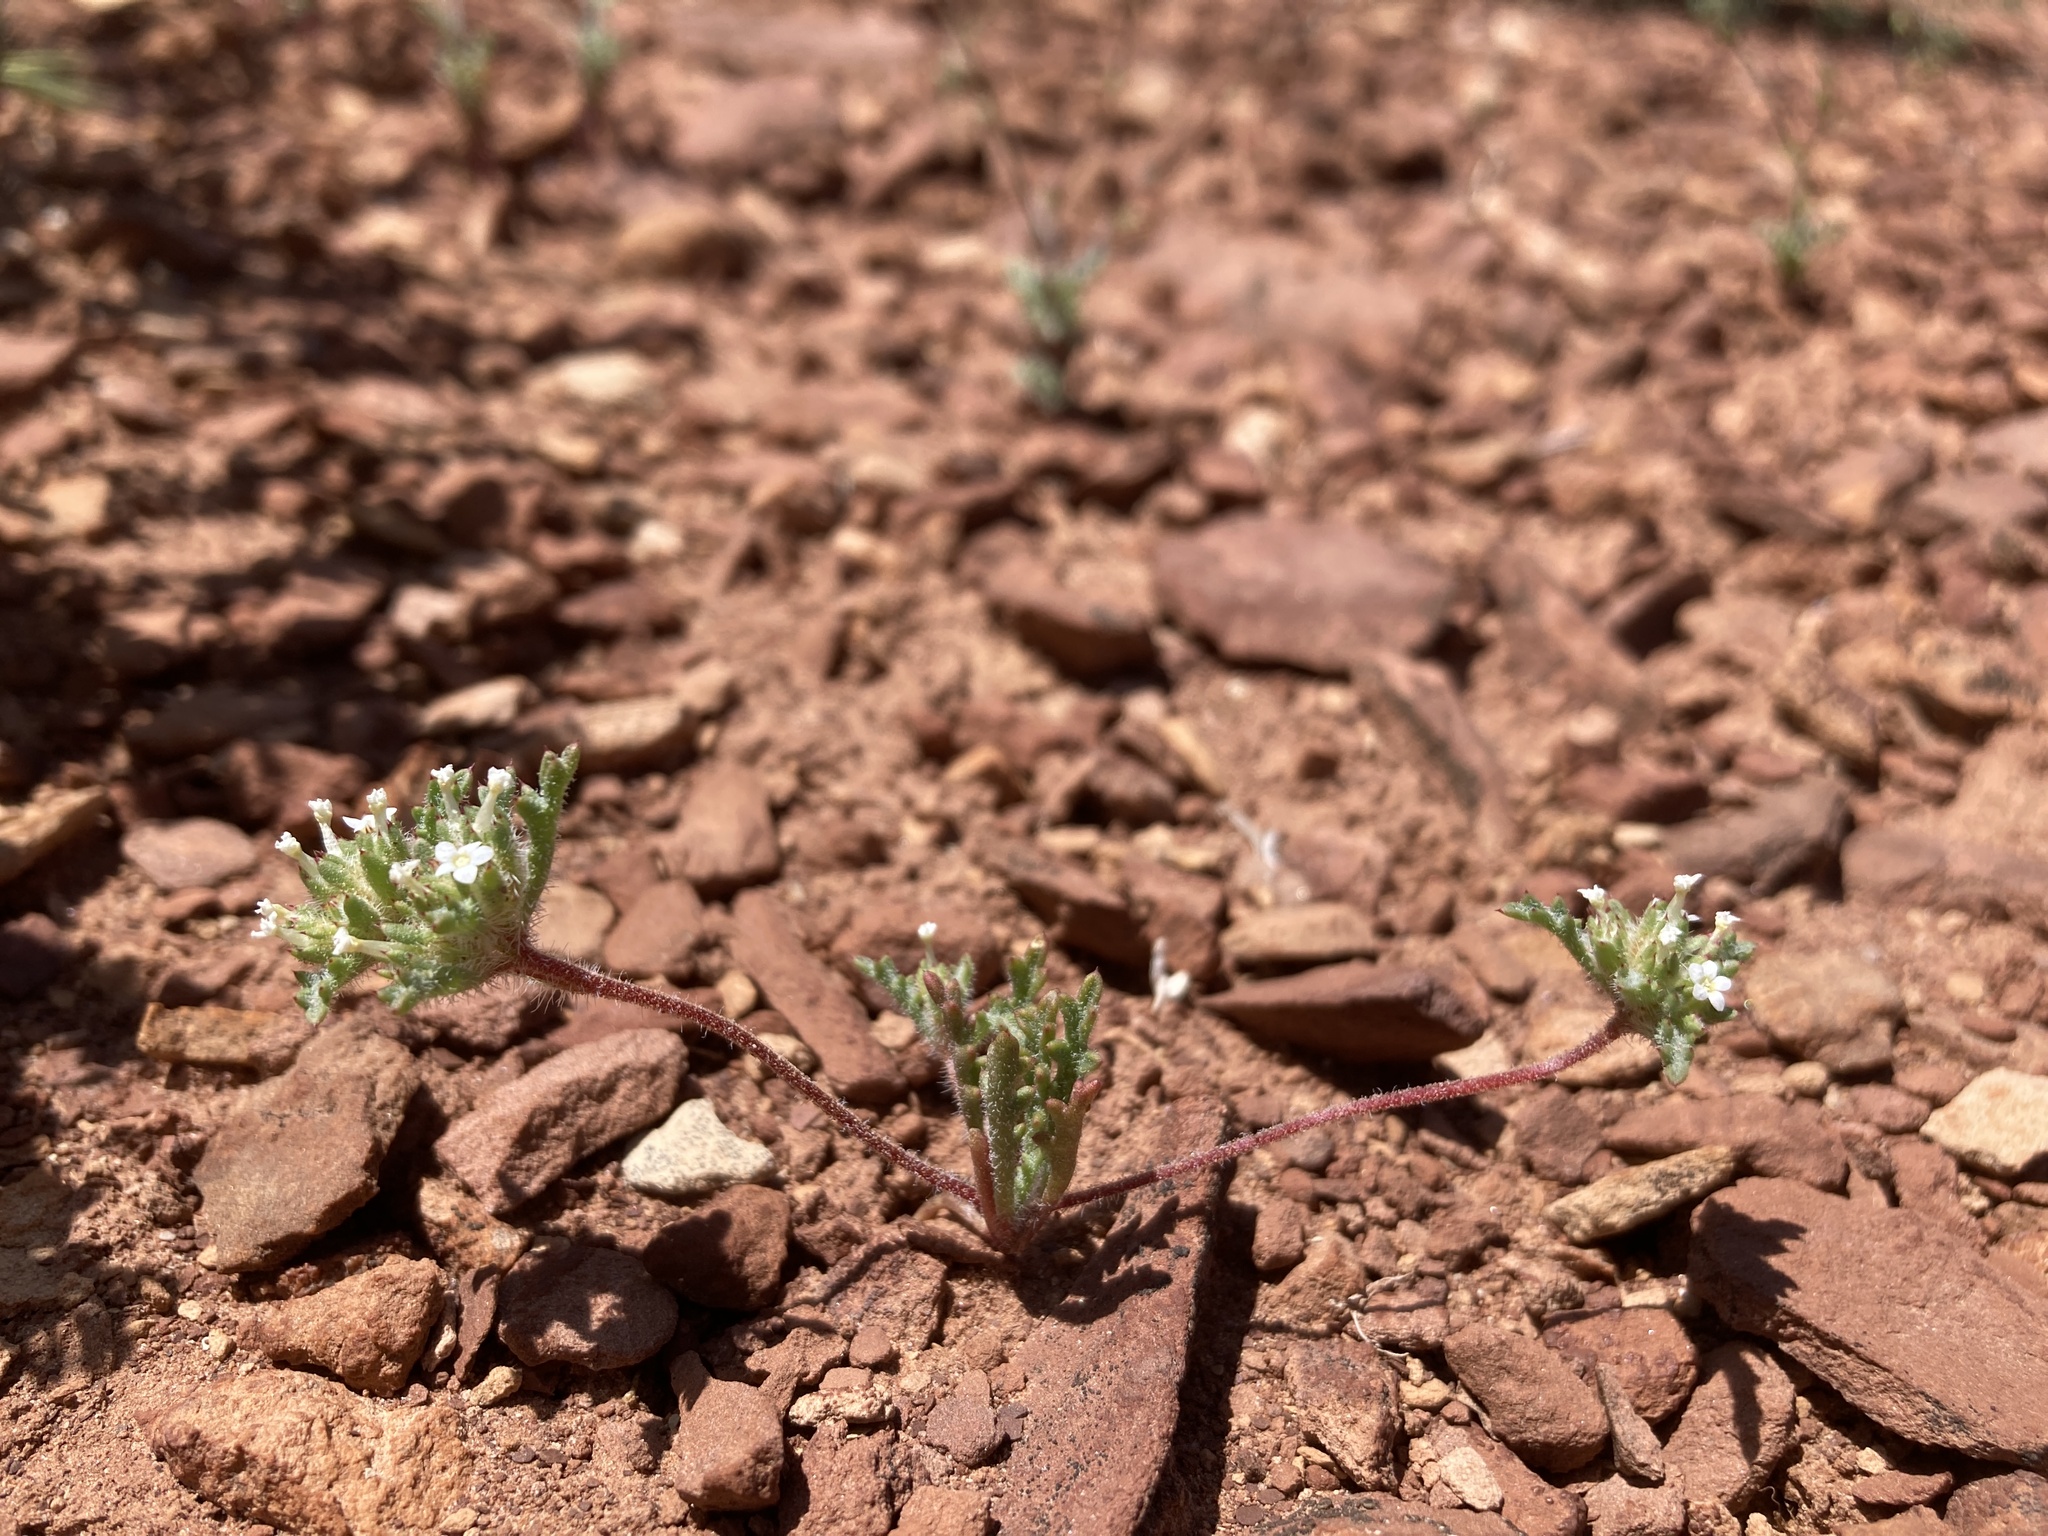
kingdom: Plantae
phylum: Tracheophyta
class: Magnoliopsida
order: Ericales
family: Polemoniaceae
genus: Ipomopsis
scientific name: Ipomopsis polycladon
